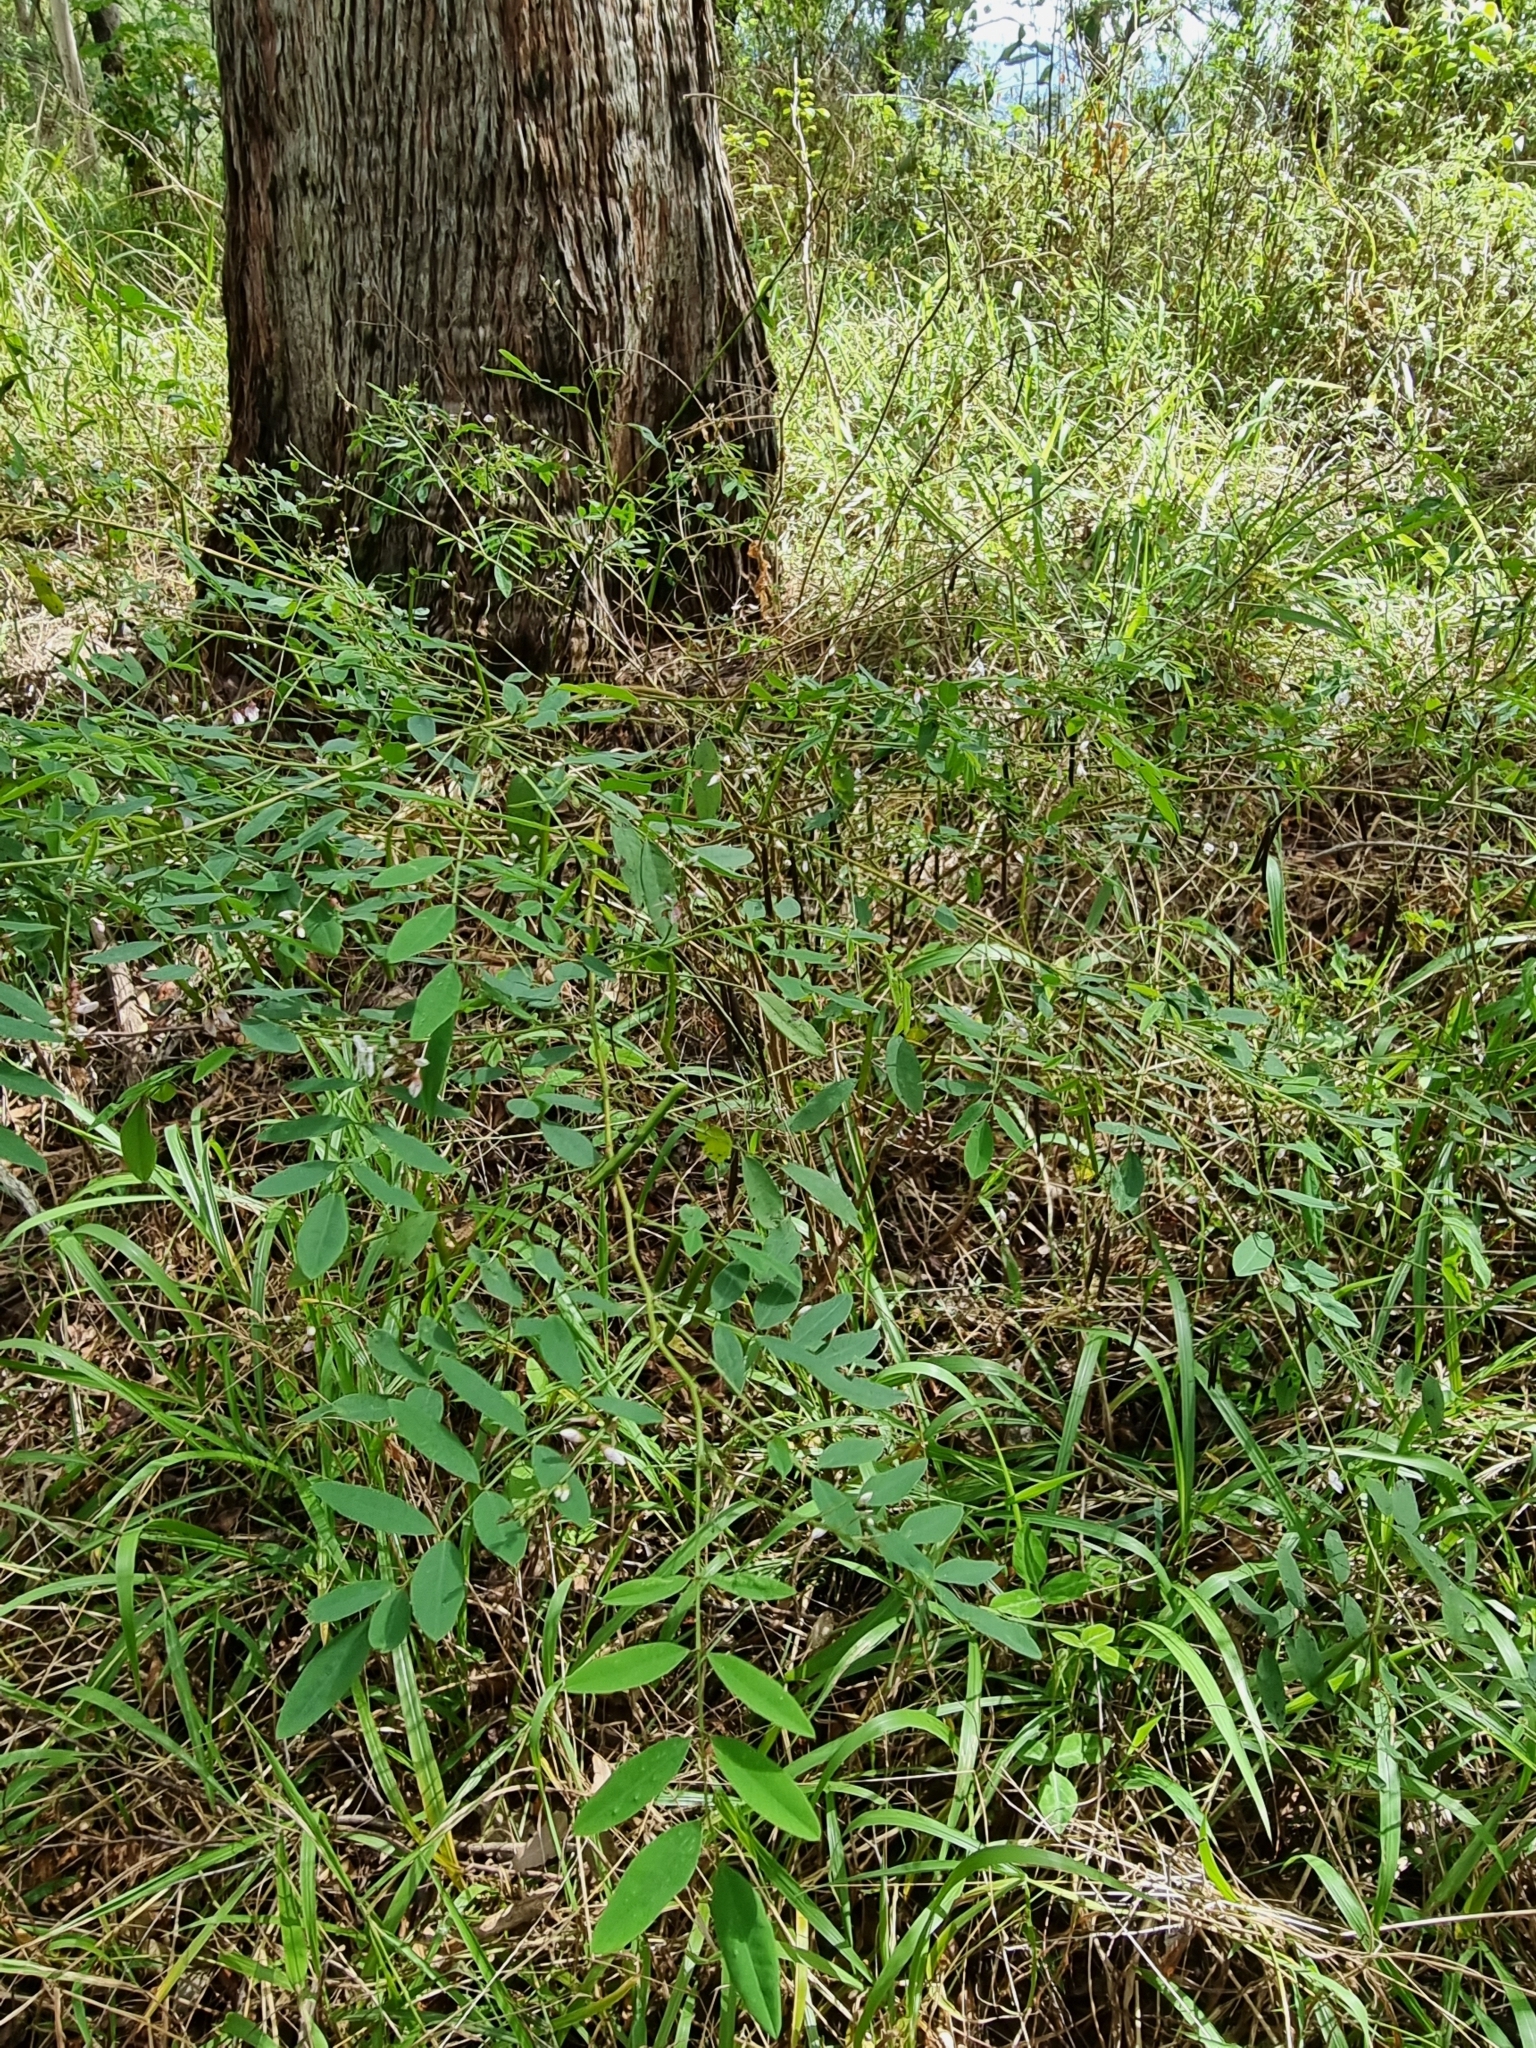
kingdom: Plantae
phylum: Tracheophyta
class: Magnoliopsida
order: Fabales
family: Fabaceae
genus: Indigofera
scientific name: Indigofera australis
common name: Australian indigo
